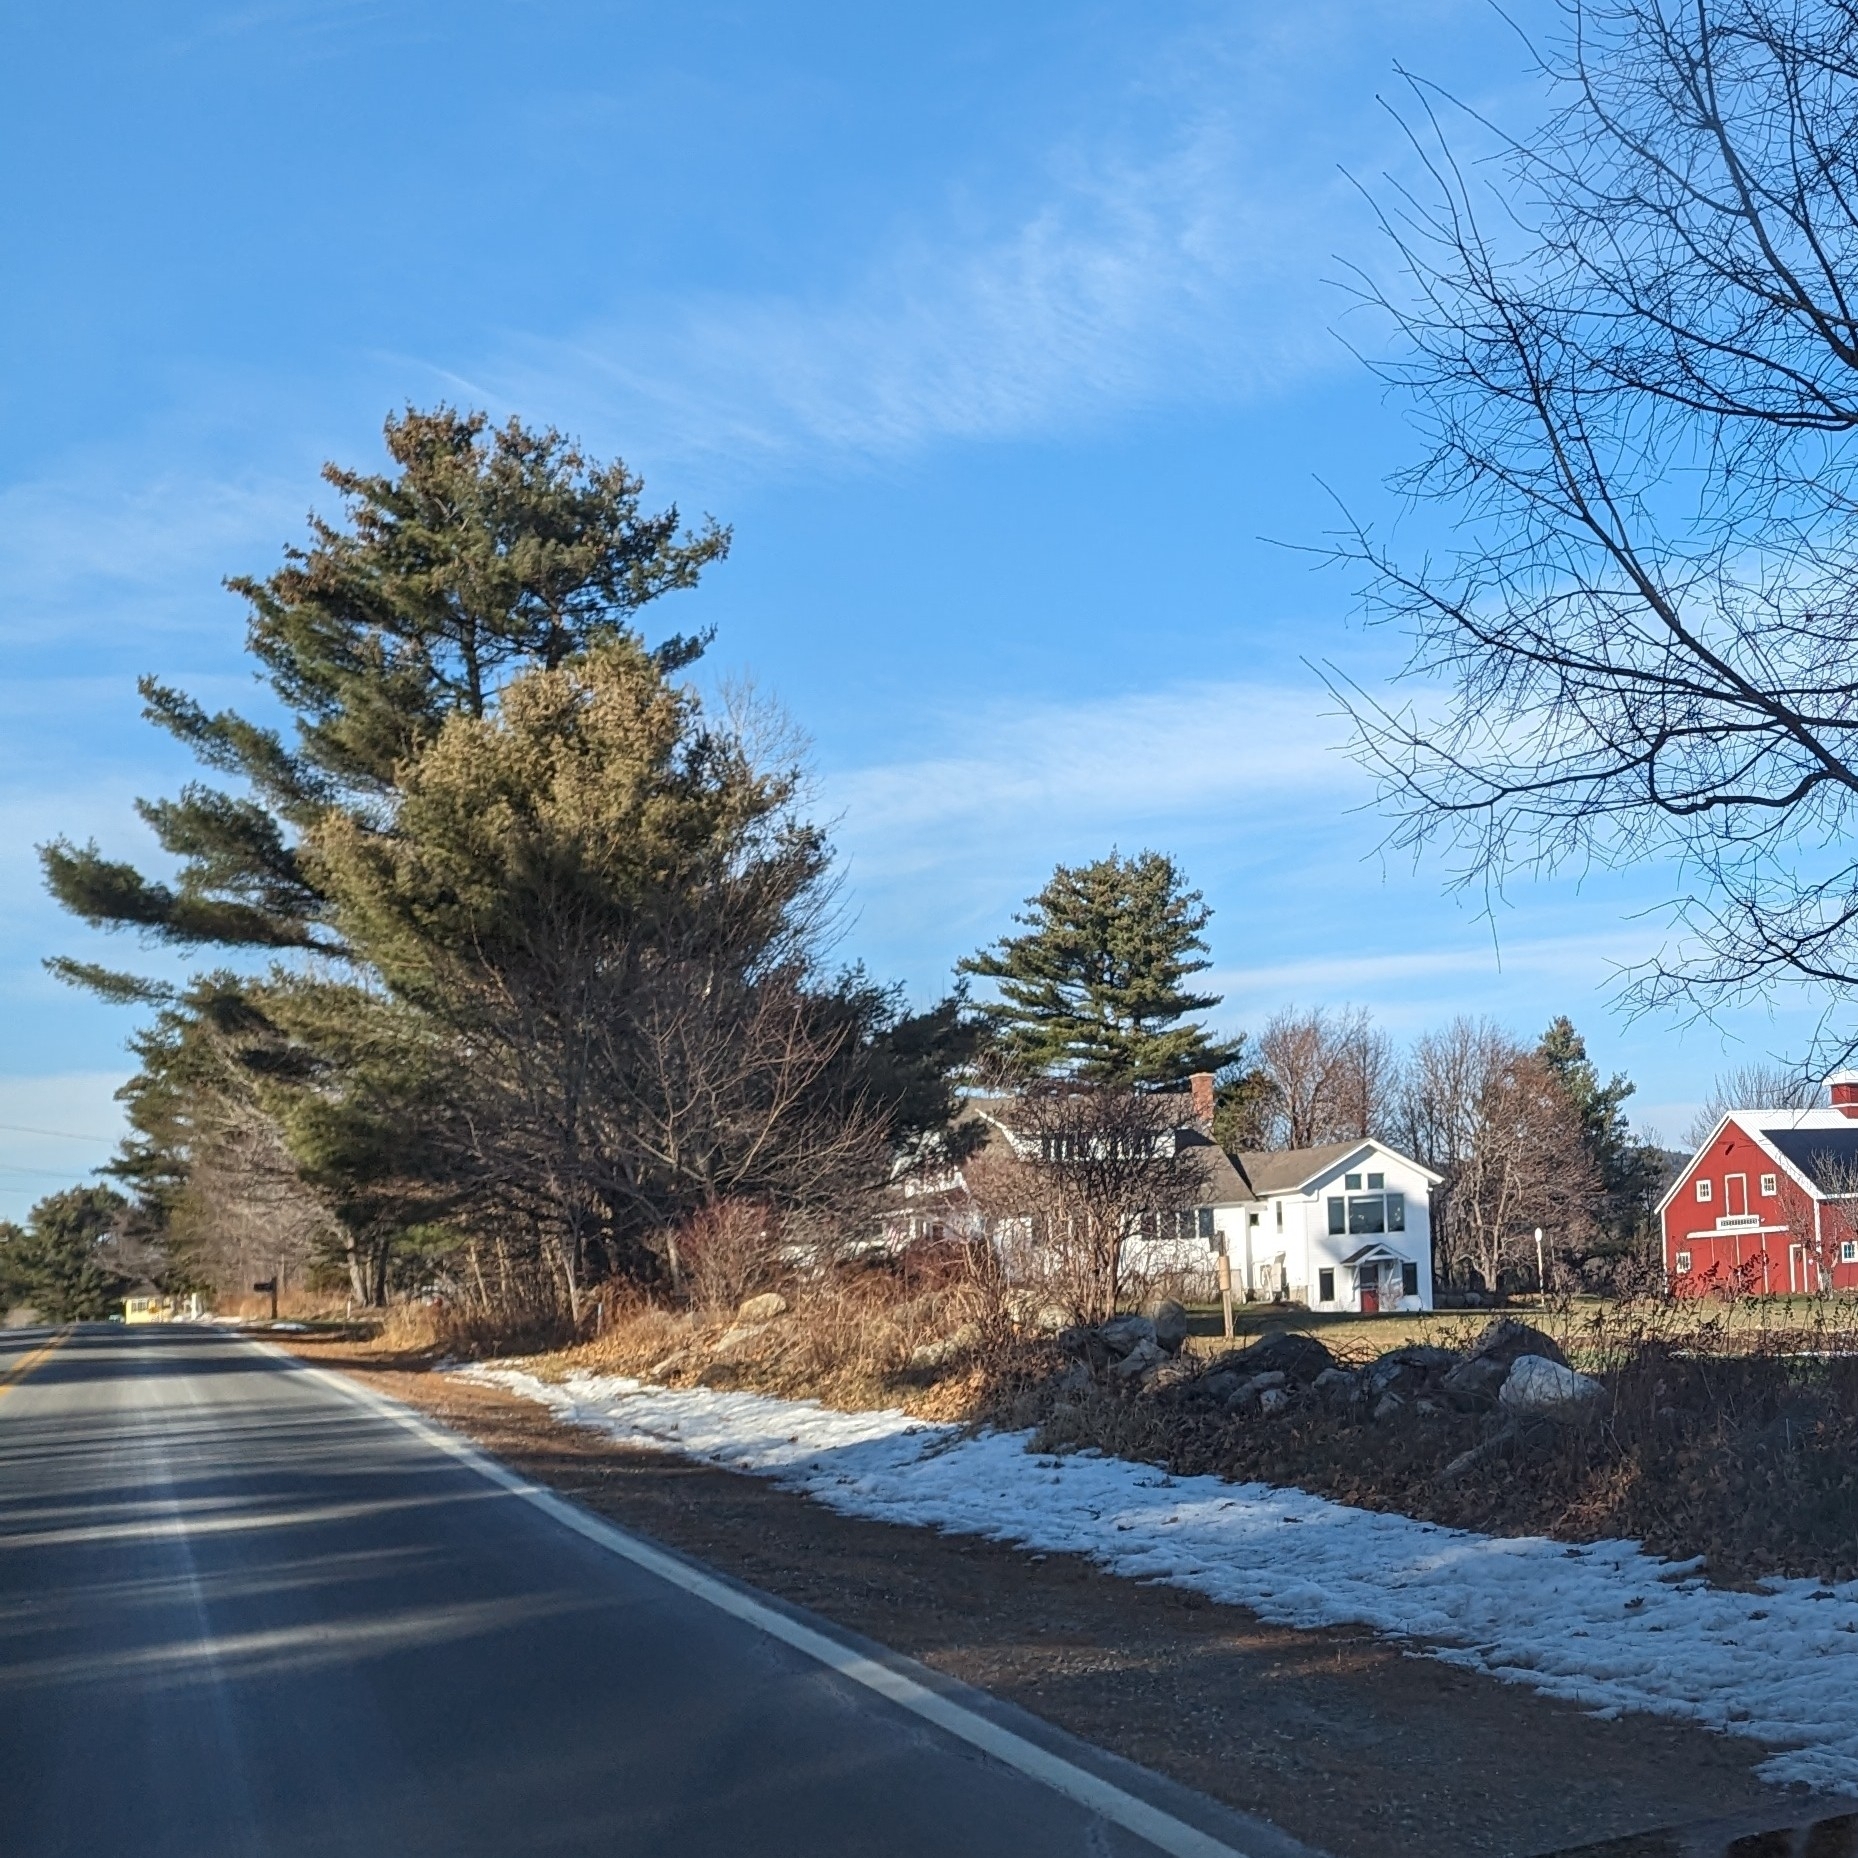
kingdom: Plantae
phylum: Tracheophyta
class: Pinopsida
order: Pinales
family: Pinaceae
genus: Pinus
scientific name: Pinus strobus
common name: Weymouth pine
